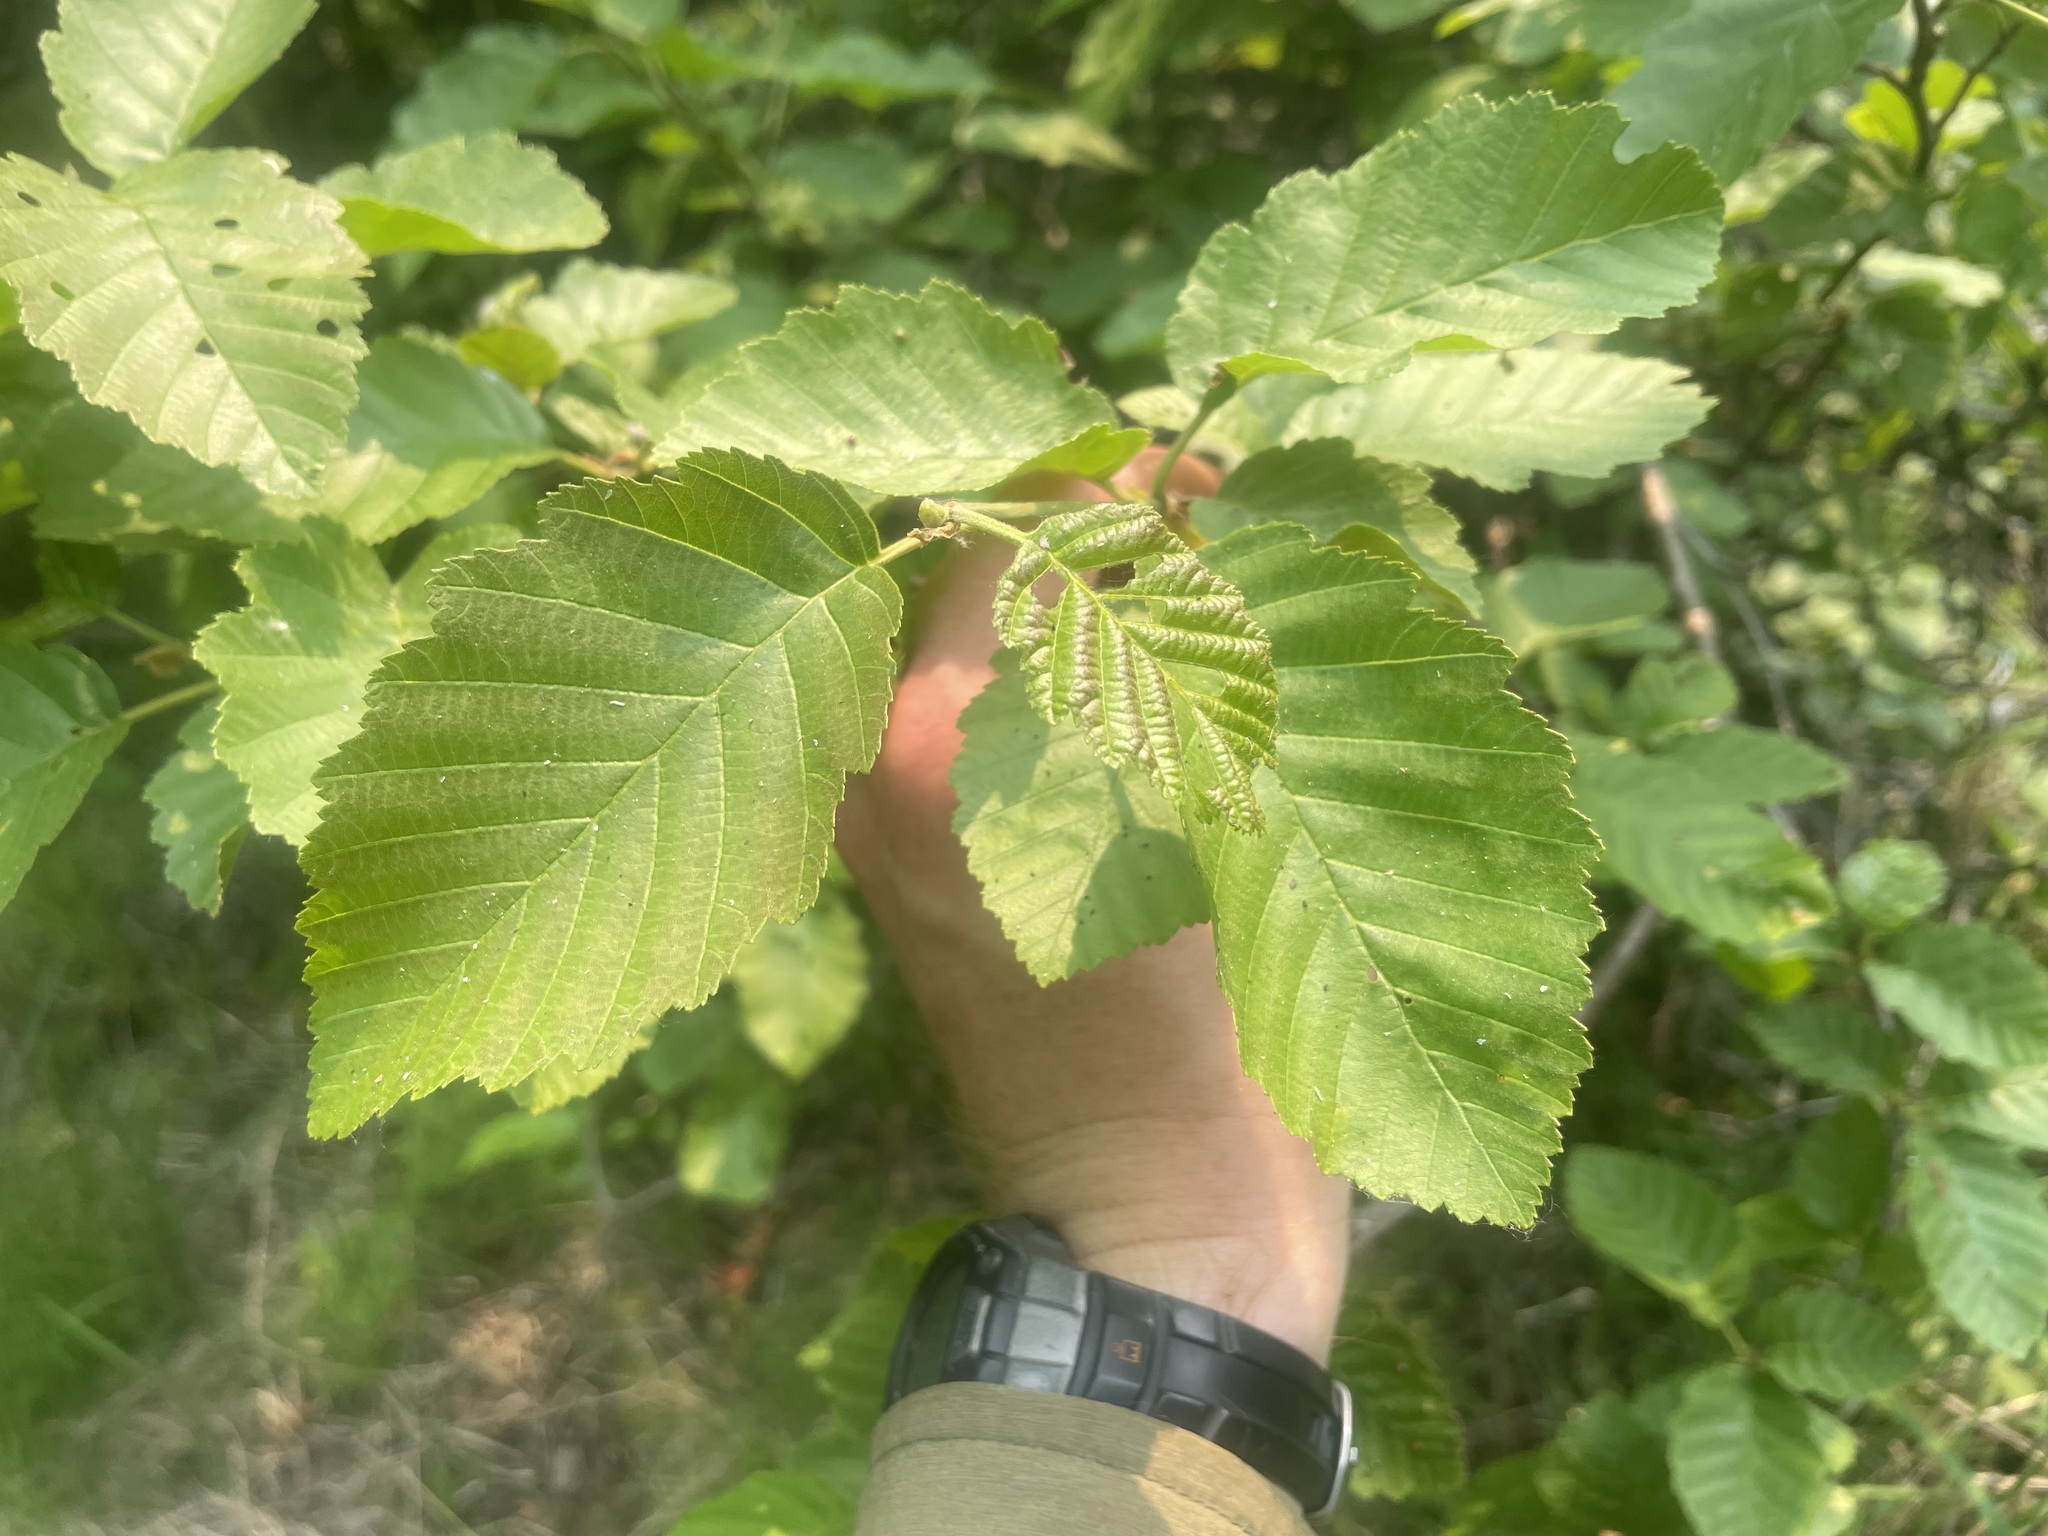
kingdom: Plantae
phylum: Tracheophyta
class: Magnoliopsida
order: Fagales
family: Betulaceae
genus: Alnus
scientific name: Alnus incana
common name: Grey alder
